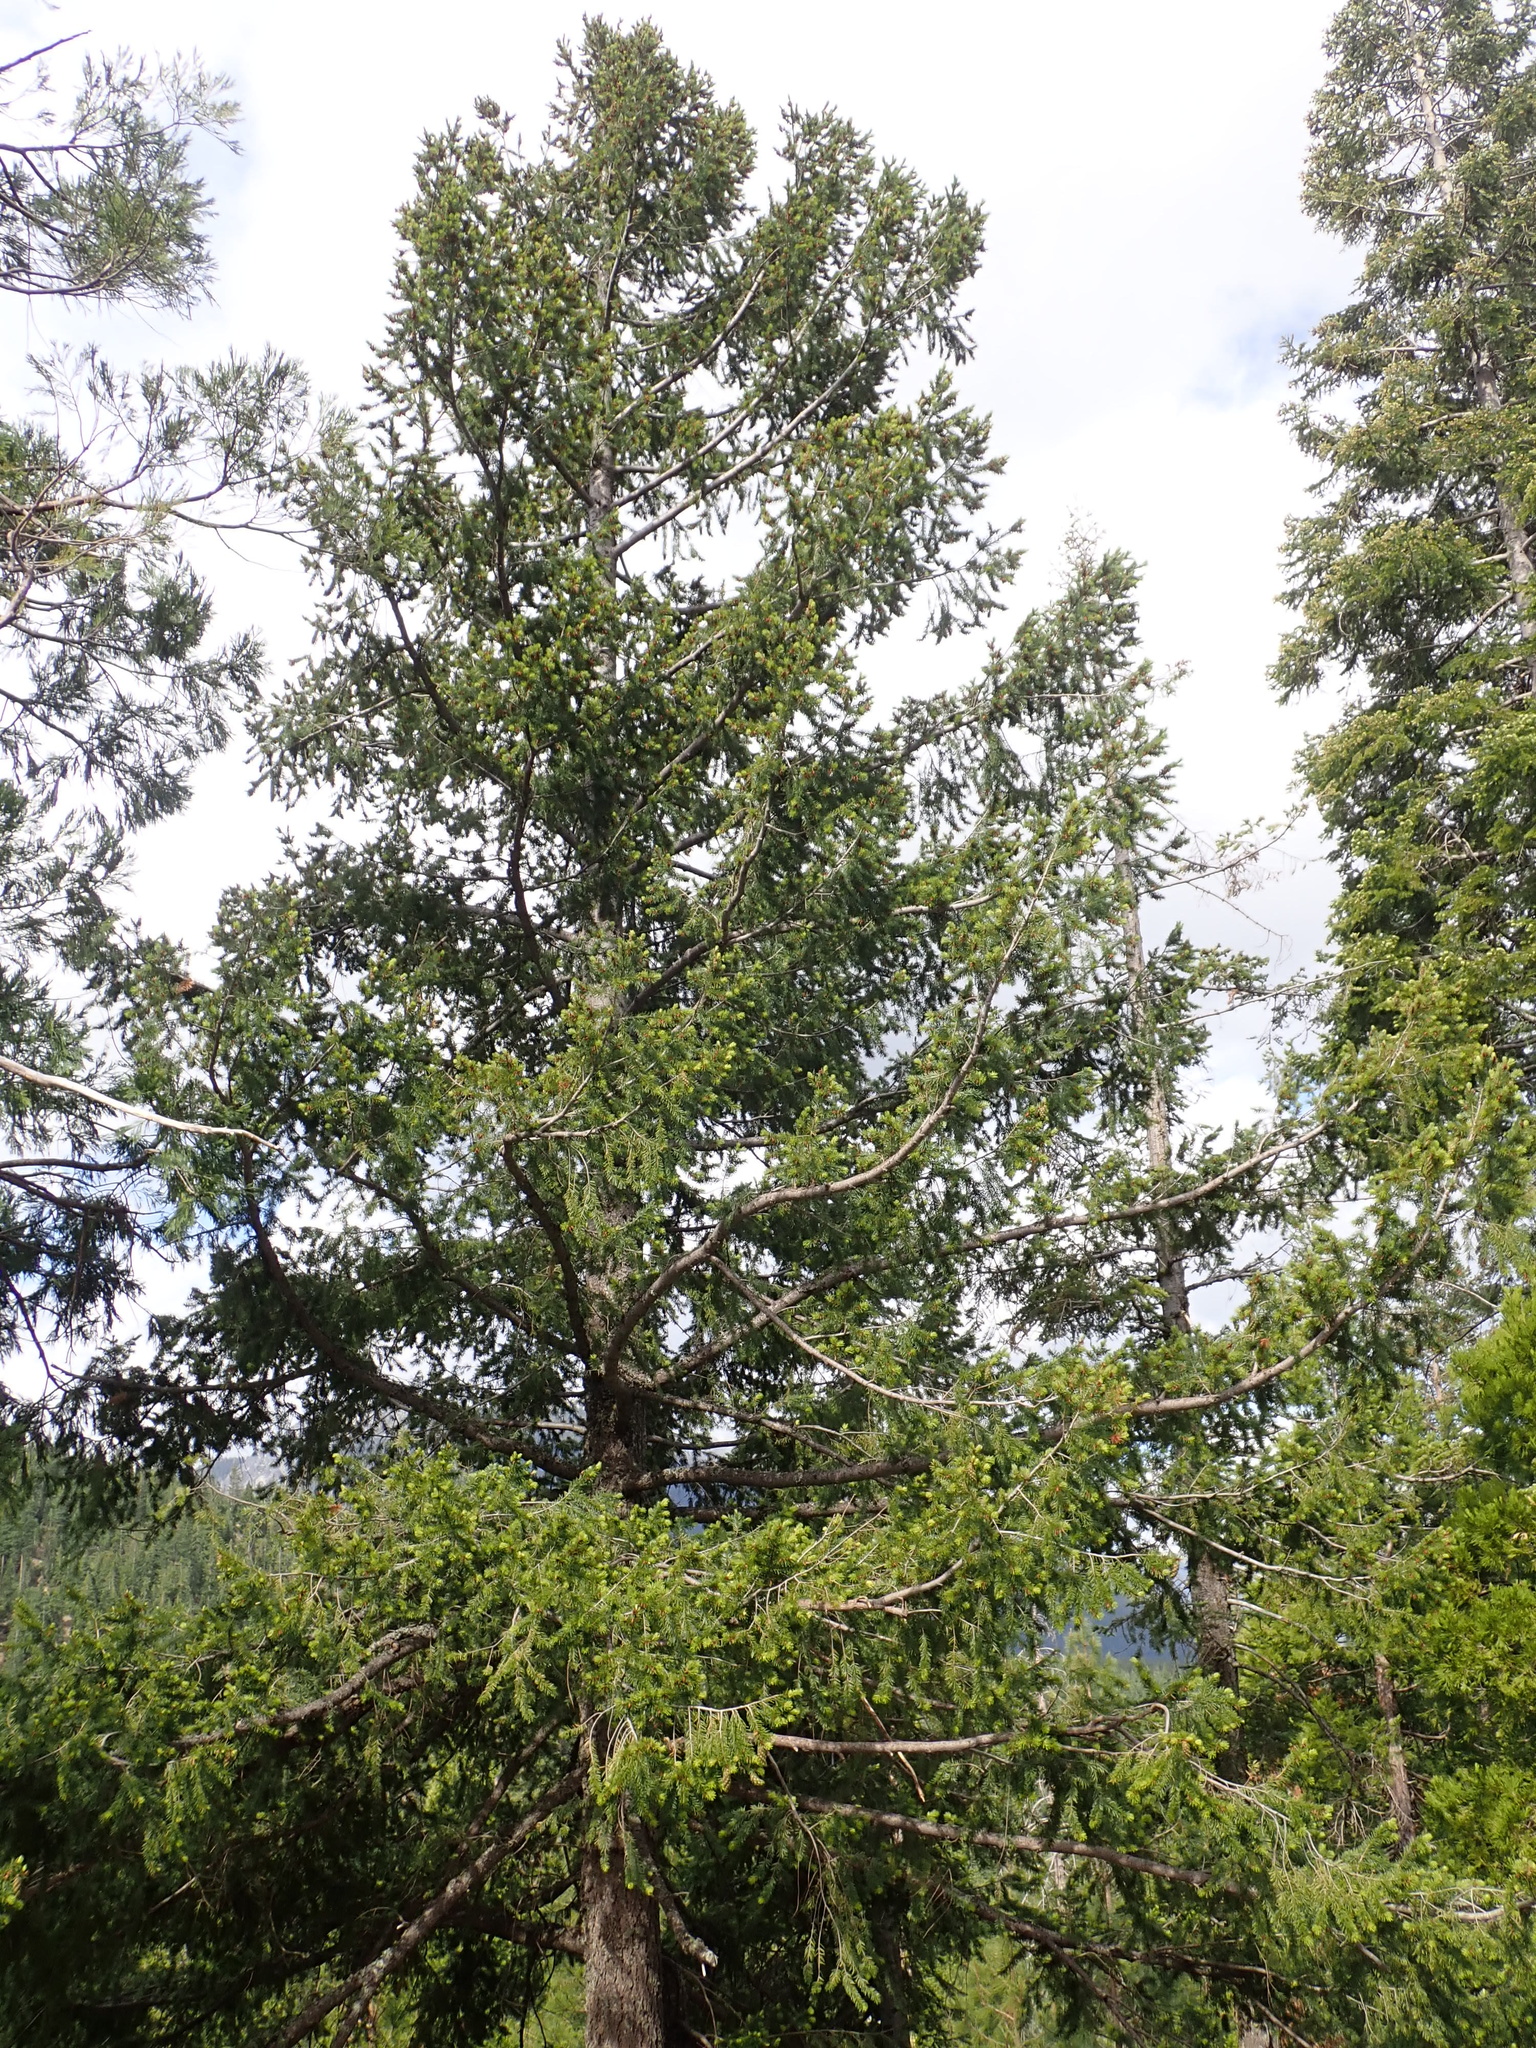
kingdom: Plantae
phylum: Tracheophyta
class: Pinopsida
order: Pinales
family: Pinaceae
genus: Pseudotsuga
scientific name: Pseudotsuga menziesii
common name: Douglas fir
